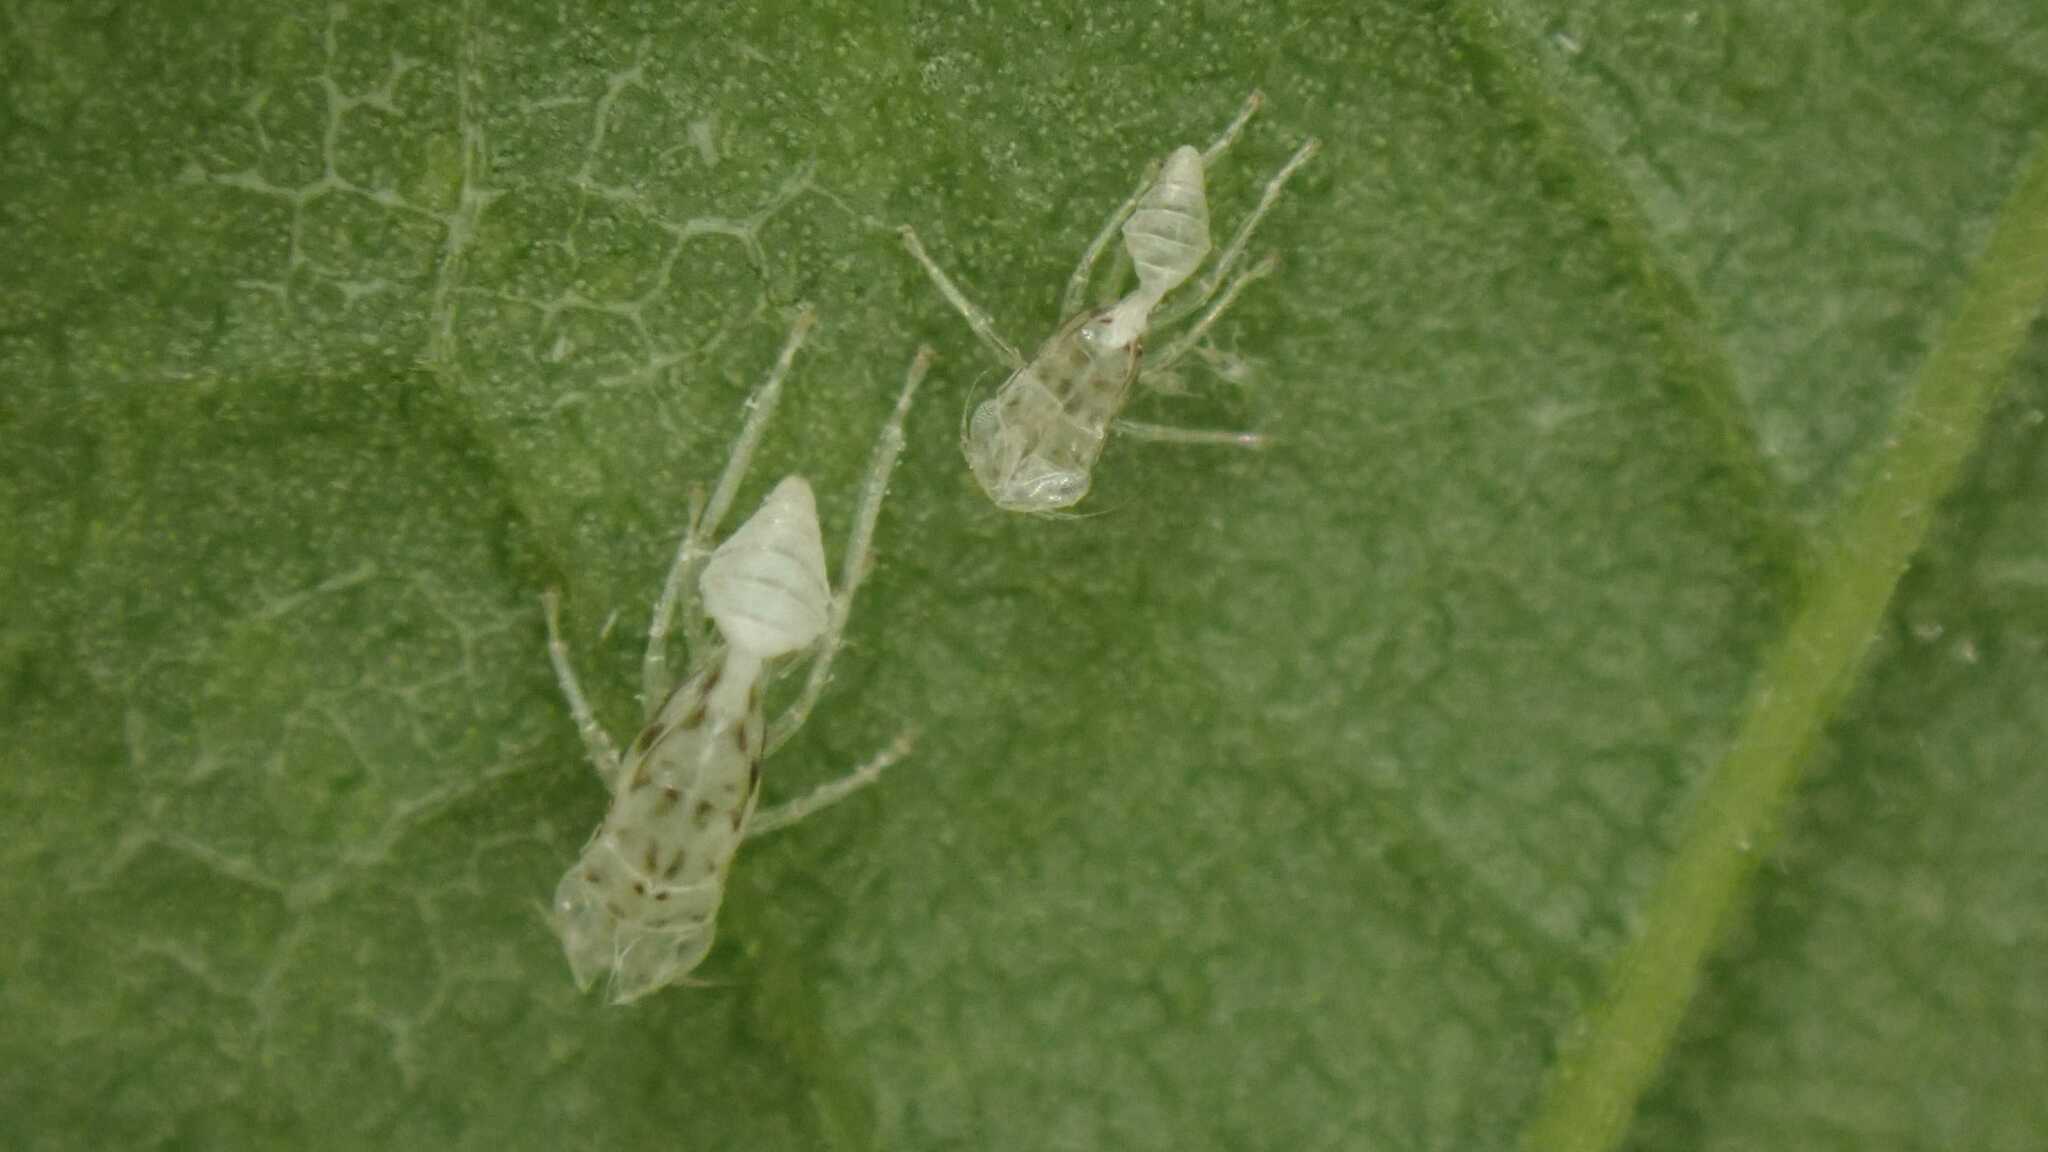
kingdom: Animalia
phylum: Arthropoda
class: Insecta
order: Hemiptera
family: Cicadellidae
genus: Zyginella
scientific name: Zyginella pulchra
